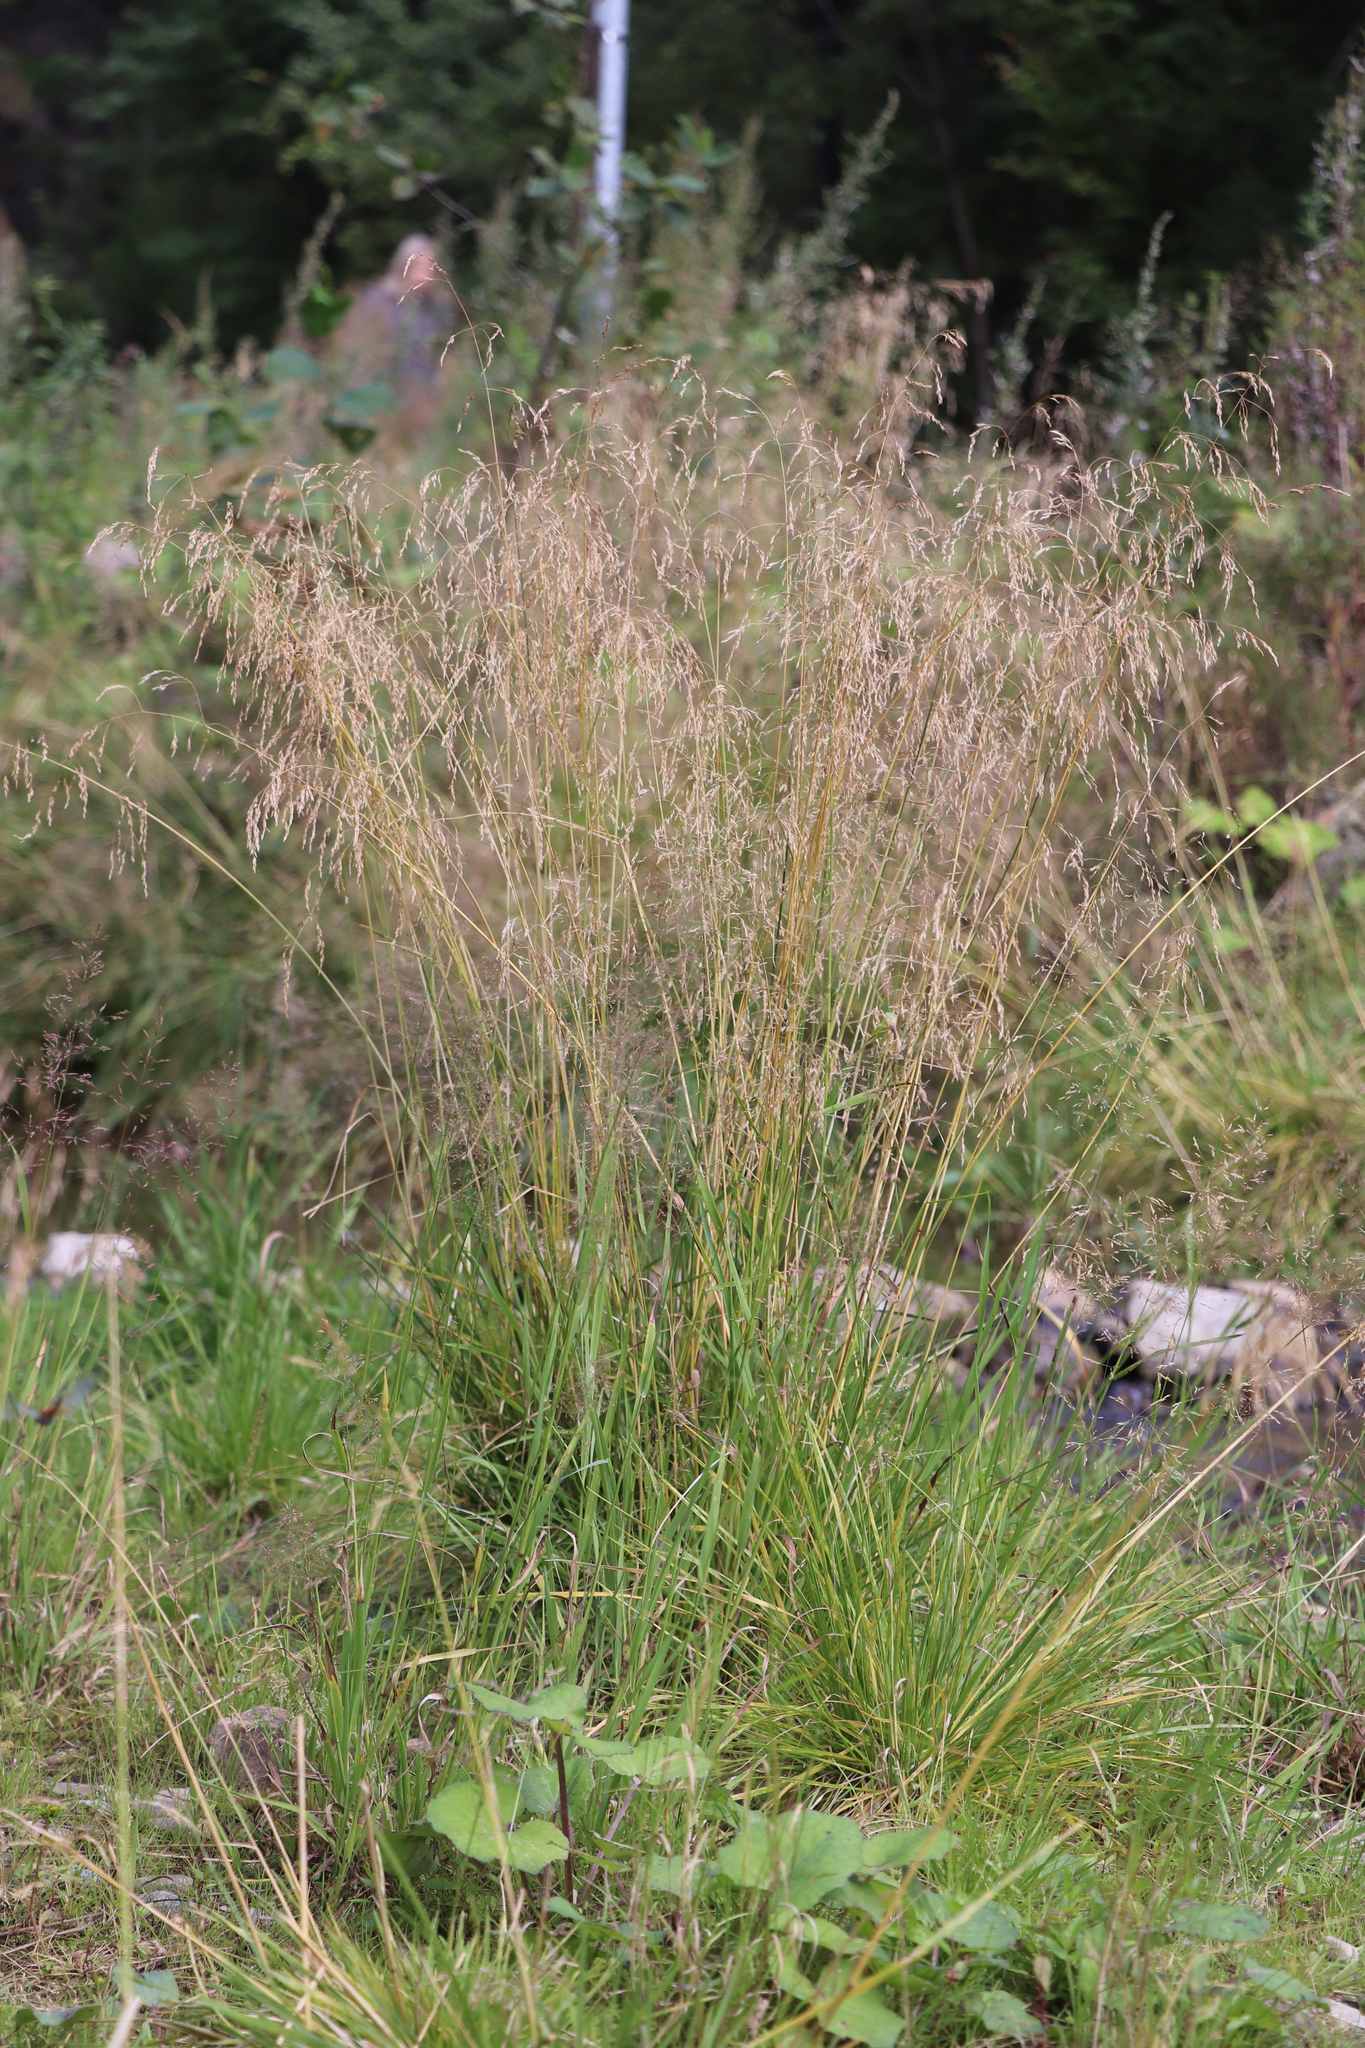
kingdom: Plantae
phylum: Tracheophyta
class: Liliopsida
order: Poales
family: Poaceae
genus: Deschampsia
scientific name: Deschampsia cespitosa
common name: Tufted hair-grass
